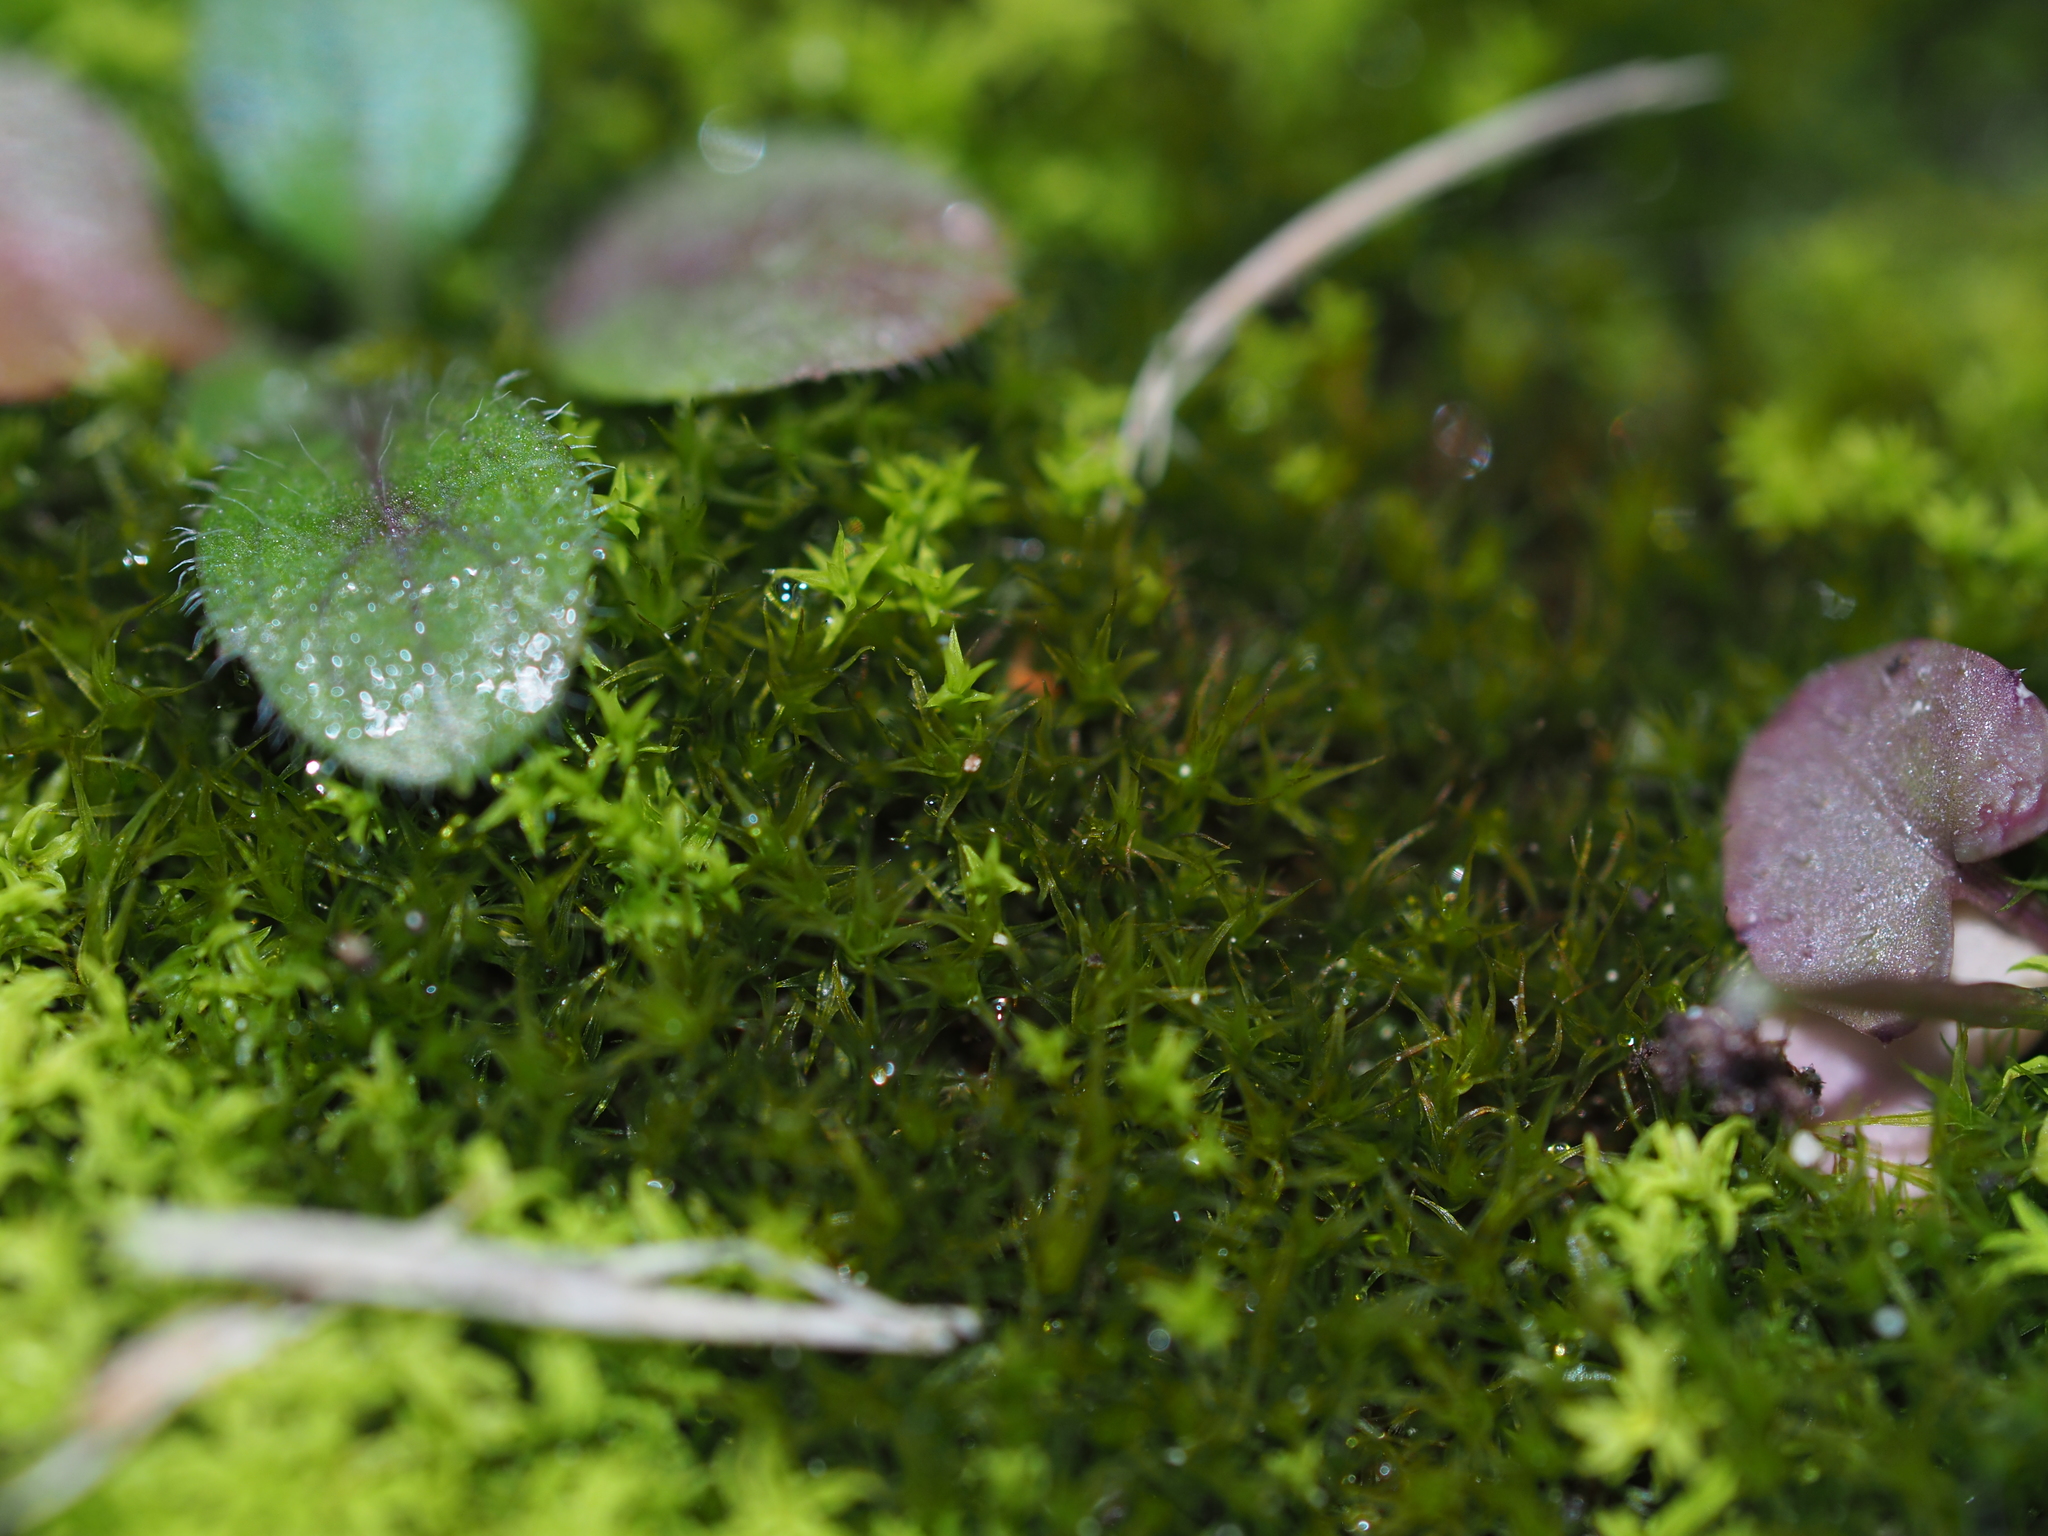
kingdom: Plantae
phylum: Bryophyta
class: Bryopsida
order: Dicranales
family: Ditrichaceae
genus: Ceratodon
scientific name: Ceratodon purpureus
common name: Redshank
